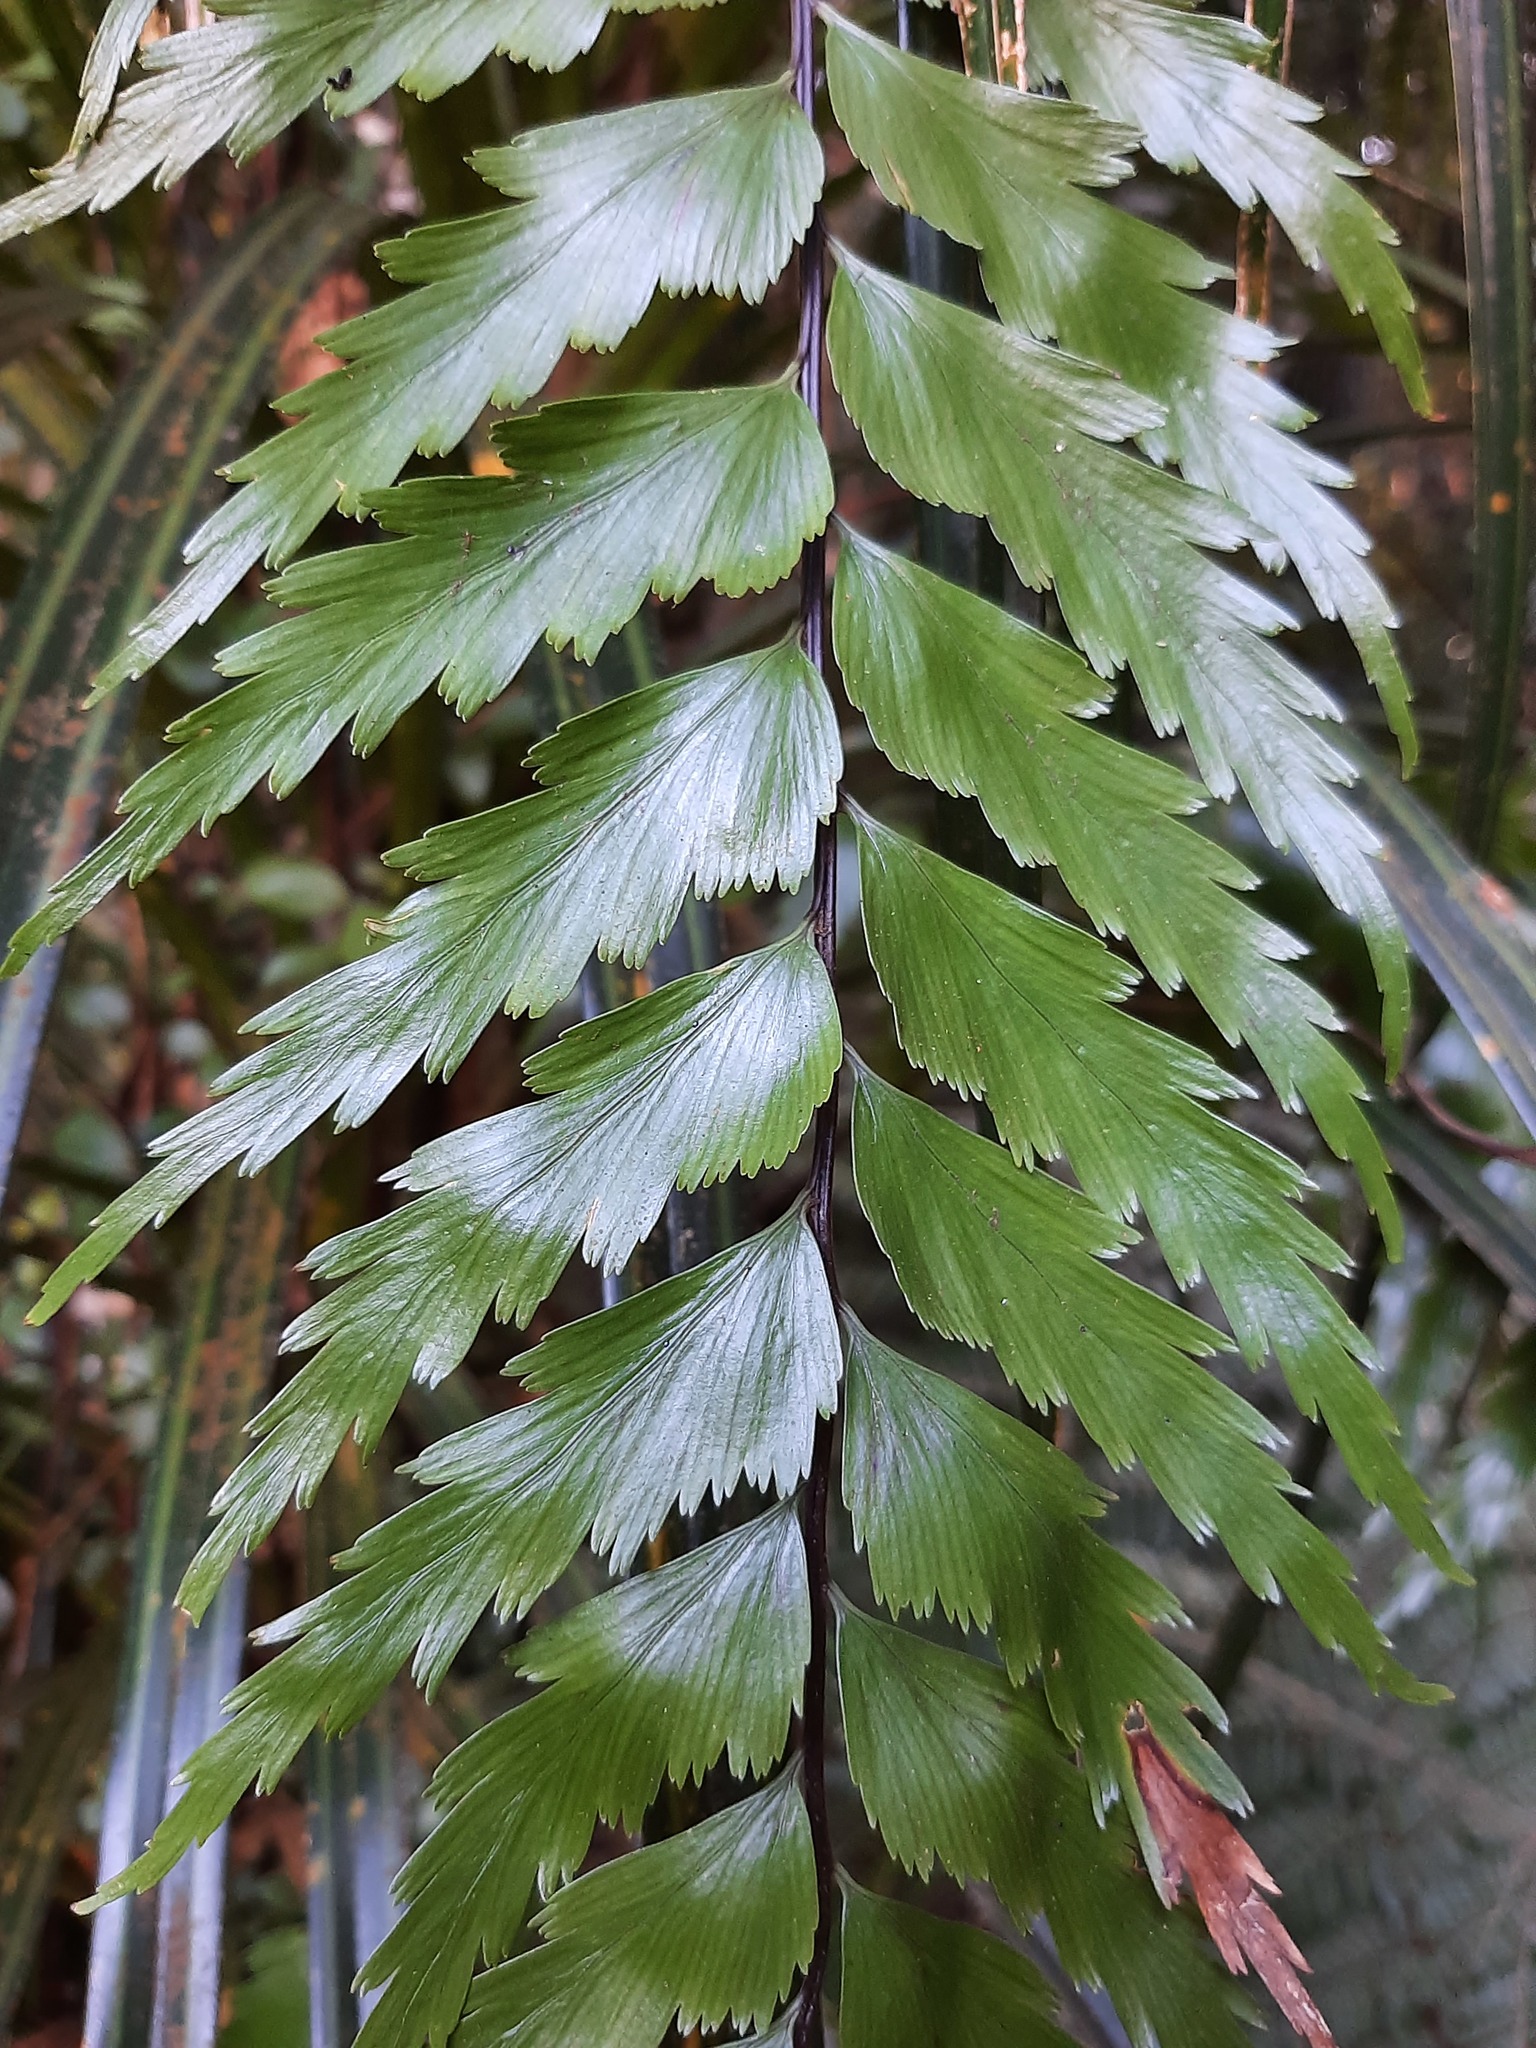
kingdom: Plantae
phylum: Tracheophyta
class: Polypodiopsida
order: Polypodiales
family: Aspleniaceae
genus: Asplenium
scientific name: Asplenium polyodon
